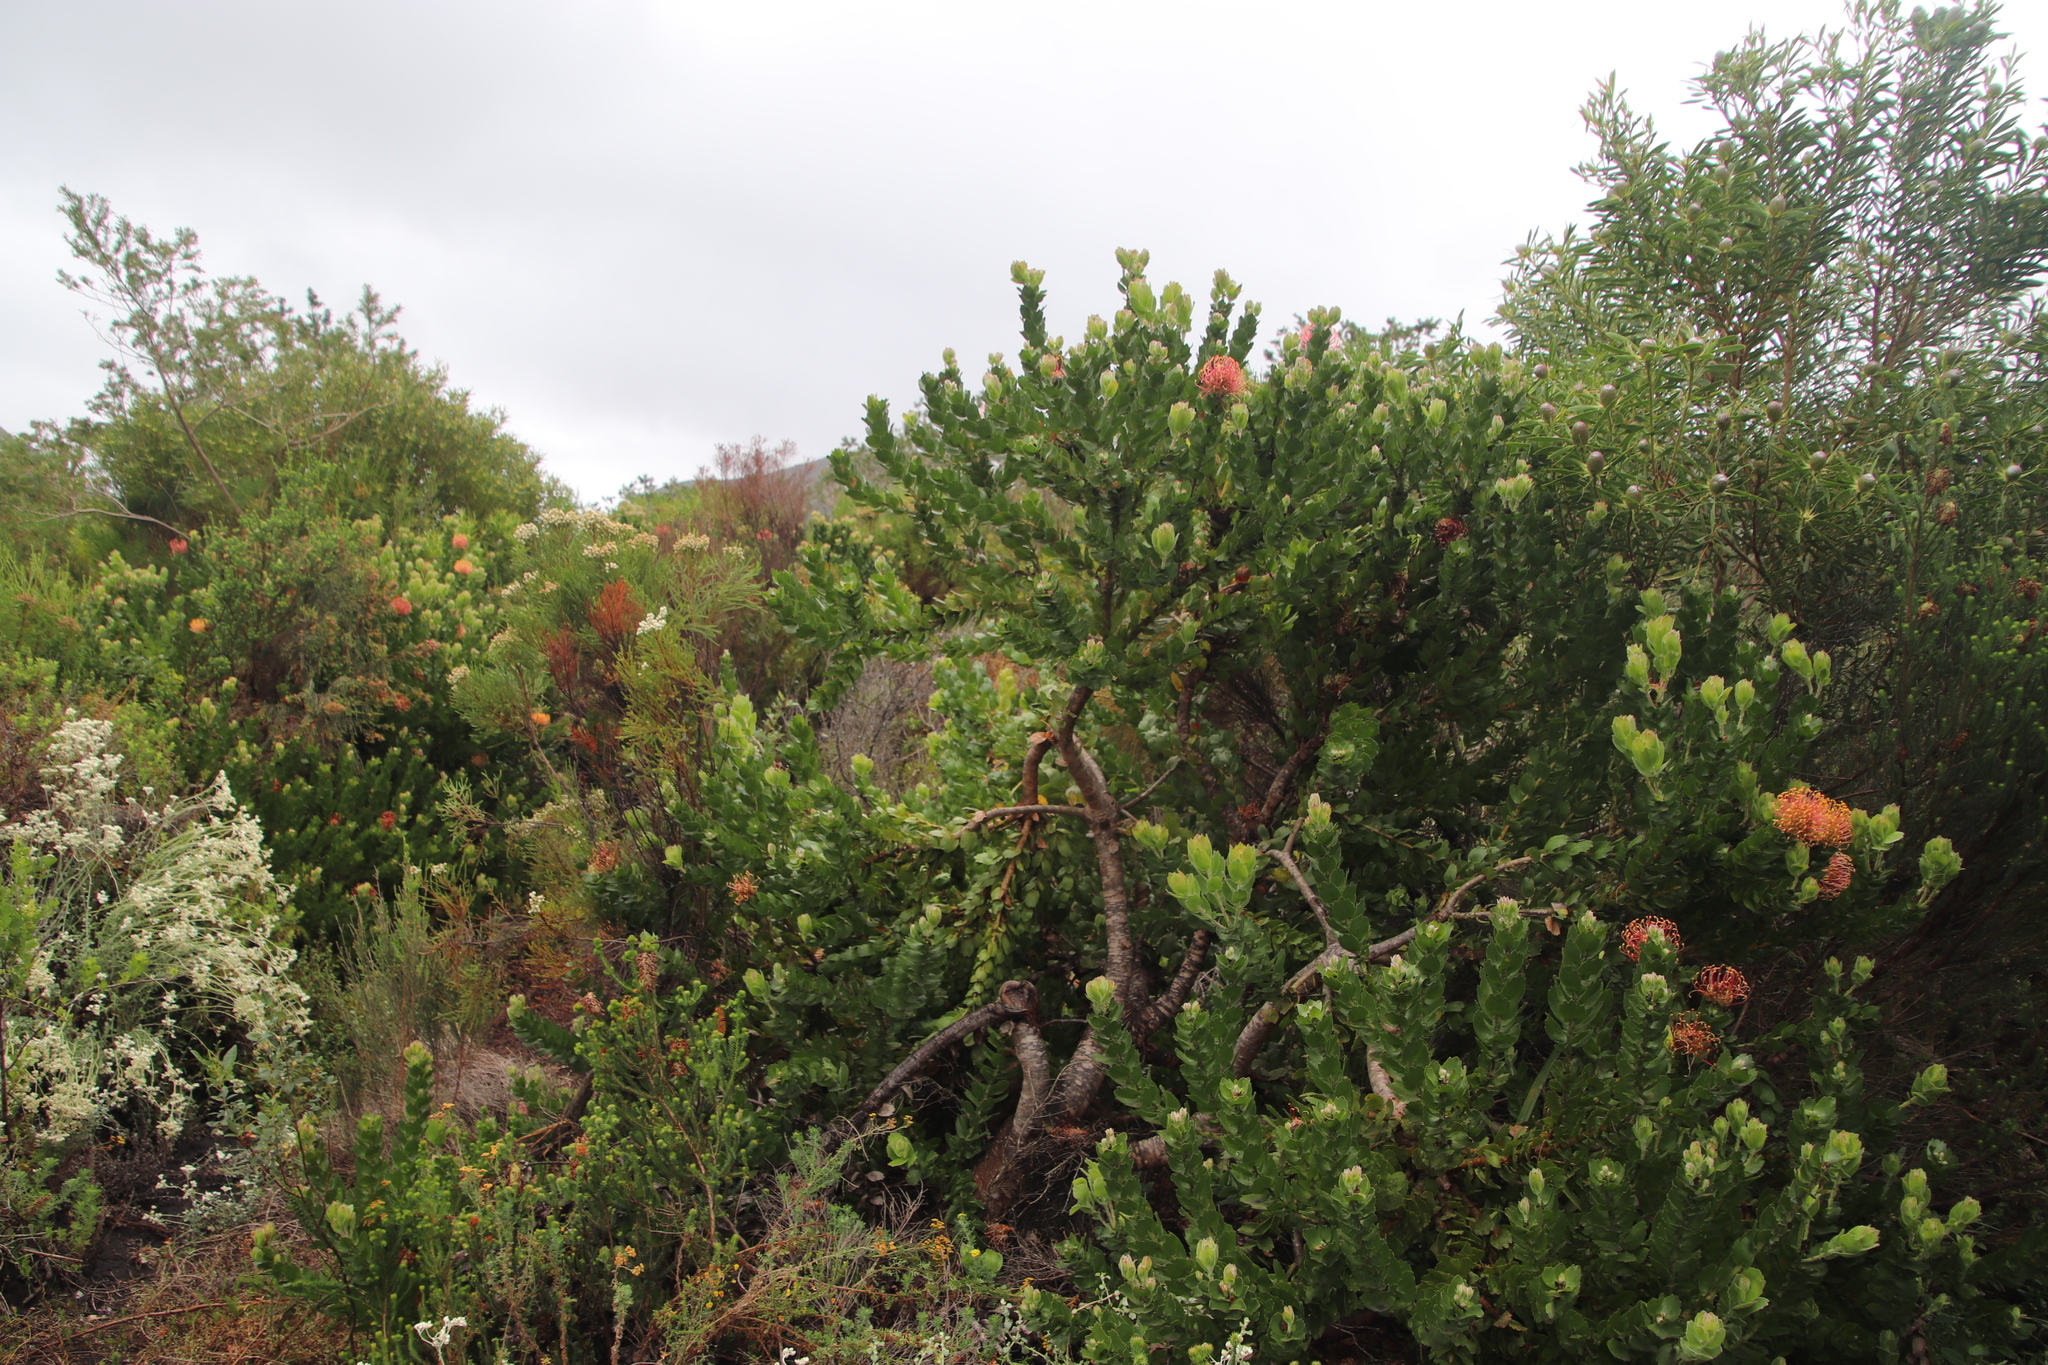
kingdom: Plantae
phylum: Tracheophyta
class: Magnoliopsida
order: Proteales
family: Proteaceae
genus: Leucospermum
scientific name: Leucospermum patersonii
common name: False tree pincushion
